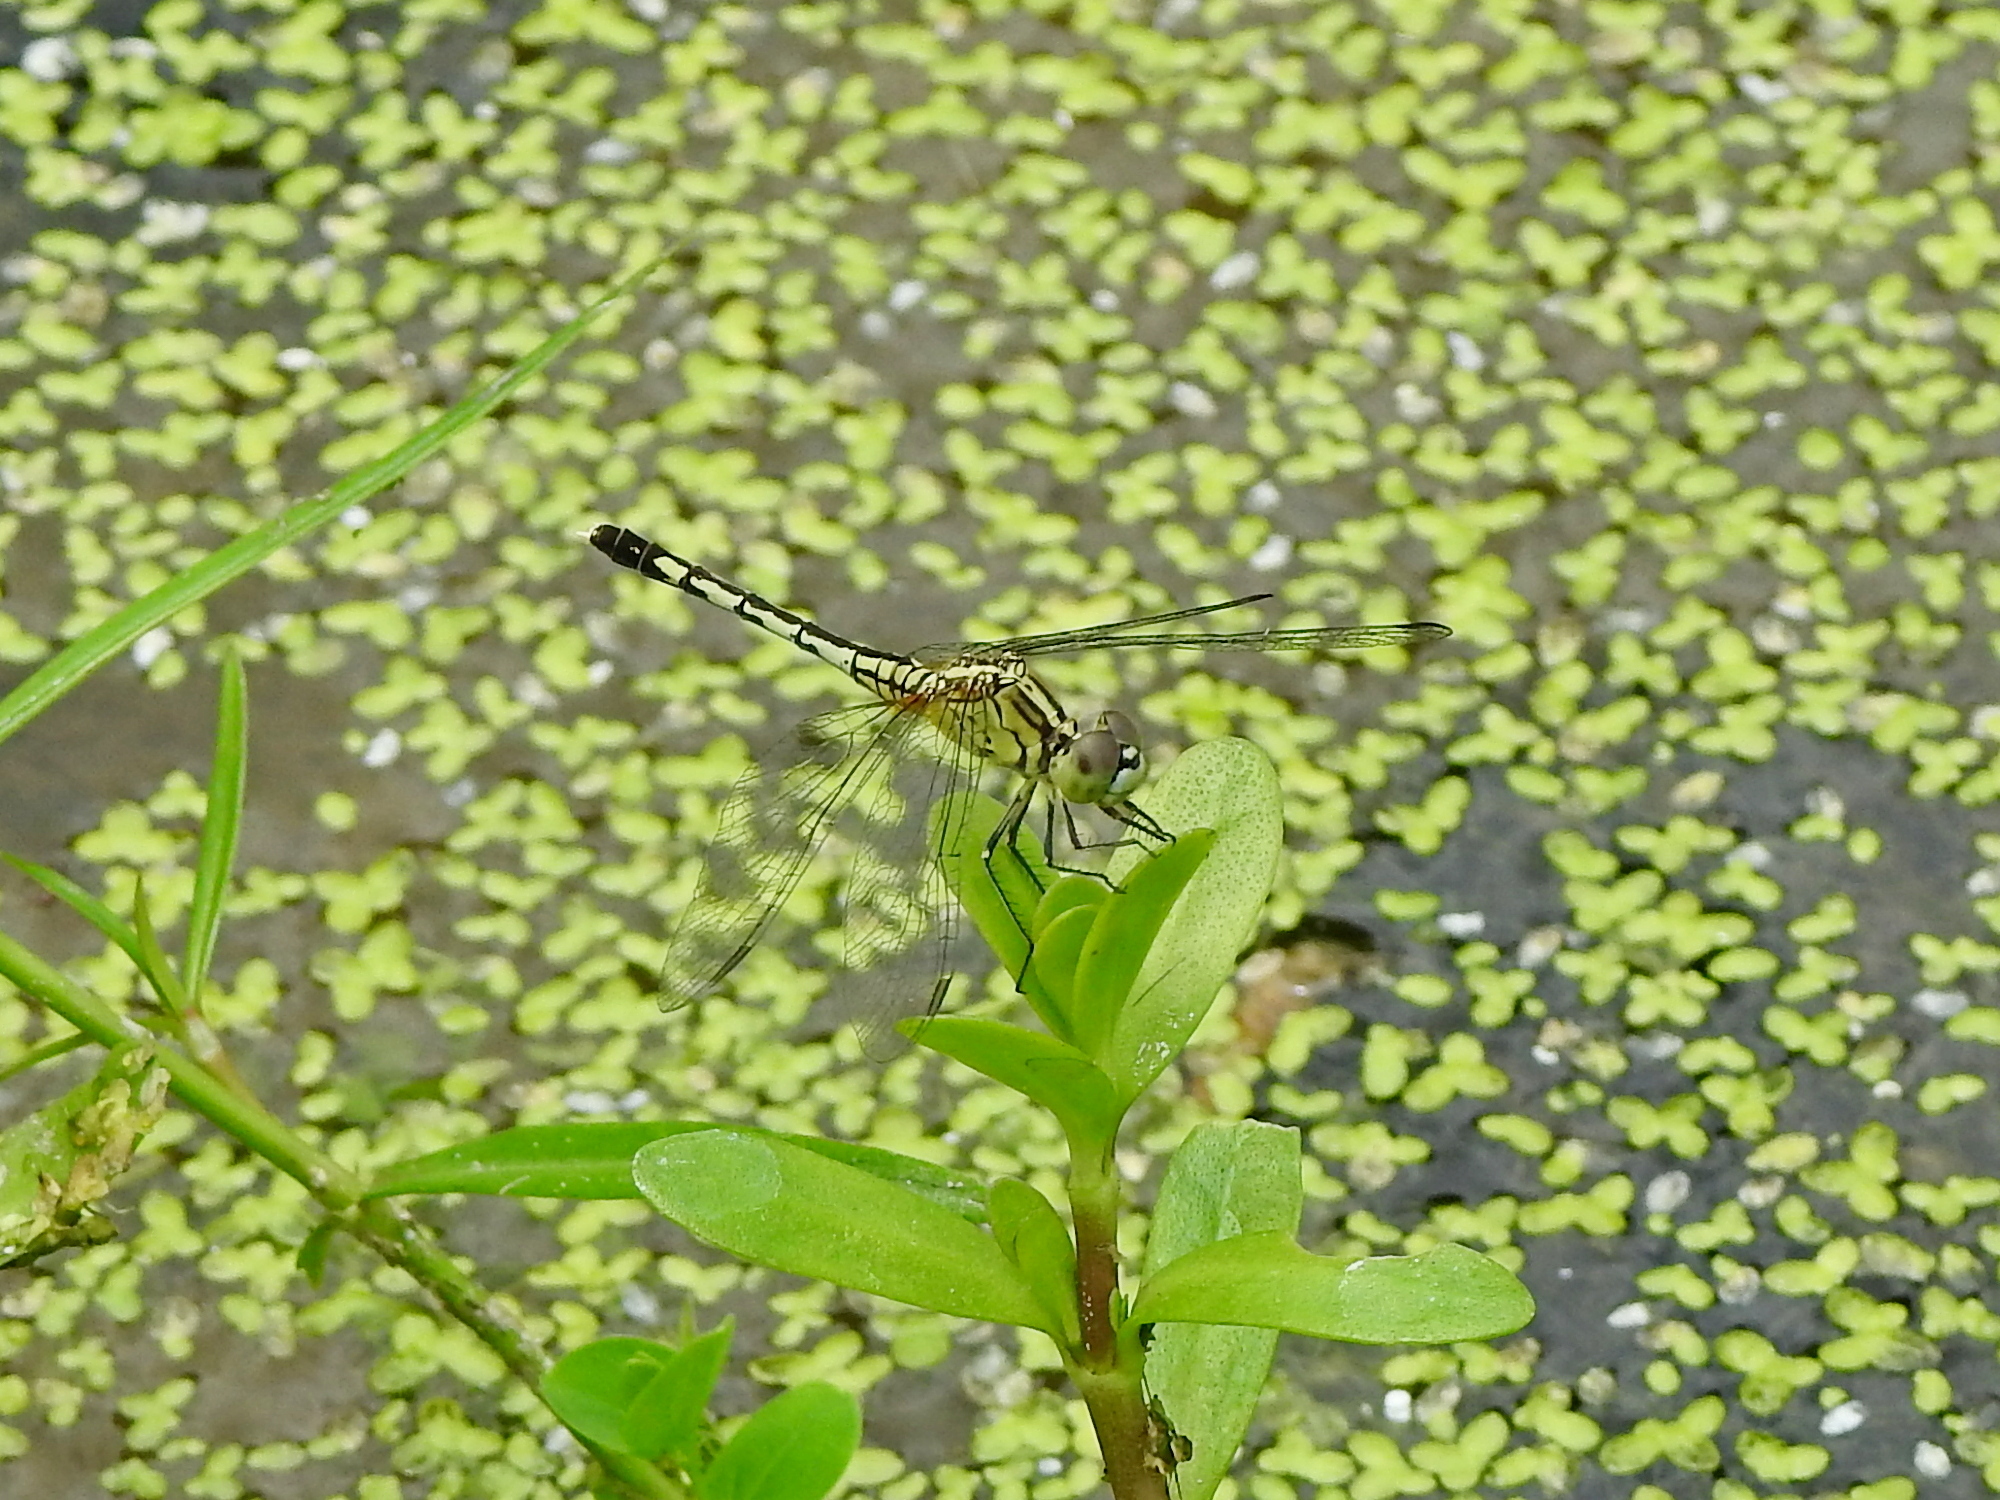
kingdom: Animalia
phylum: Arthropoda
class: Insecta
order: Odonata
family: Libellulidae
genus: Diplacodes
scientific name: Diplacodes trivialis
